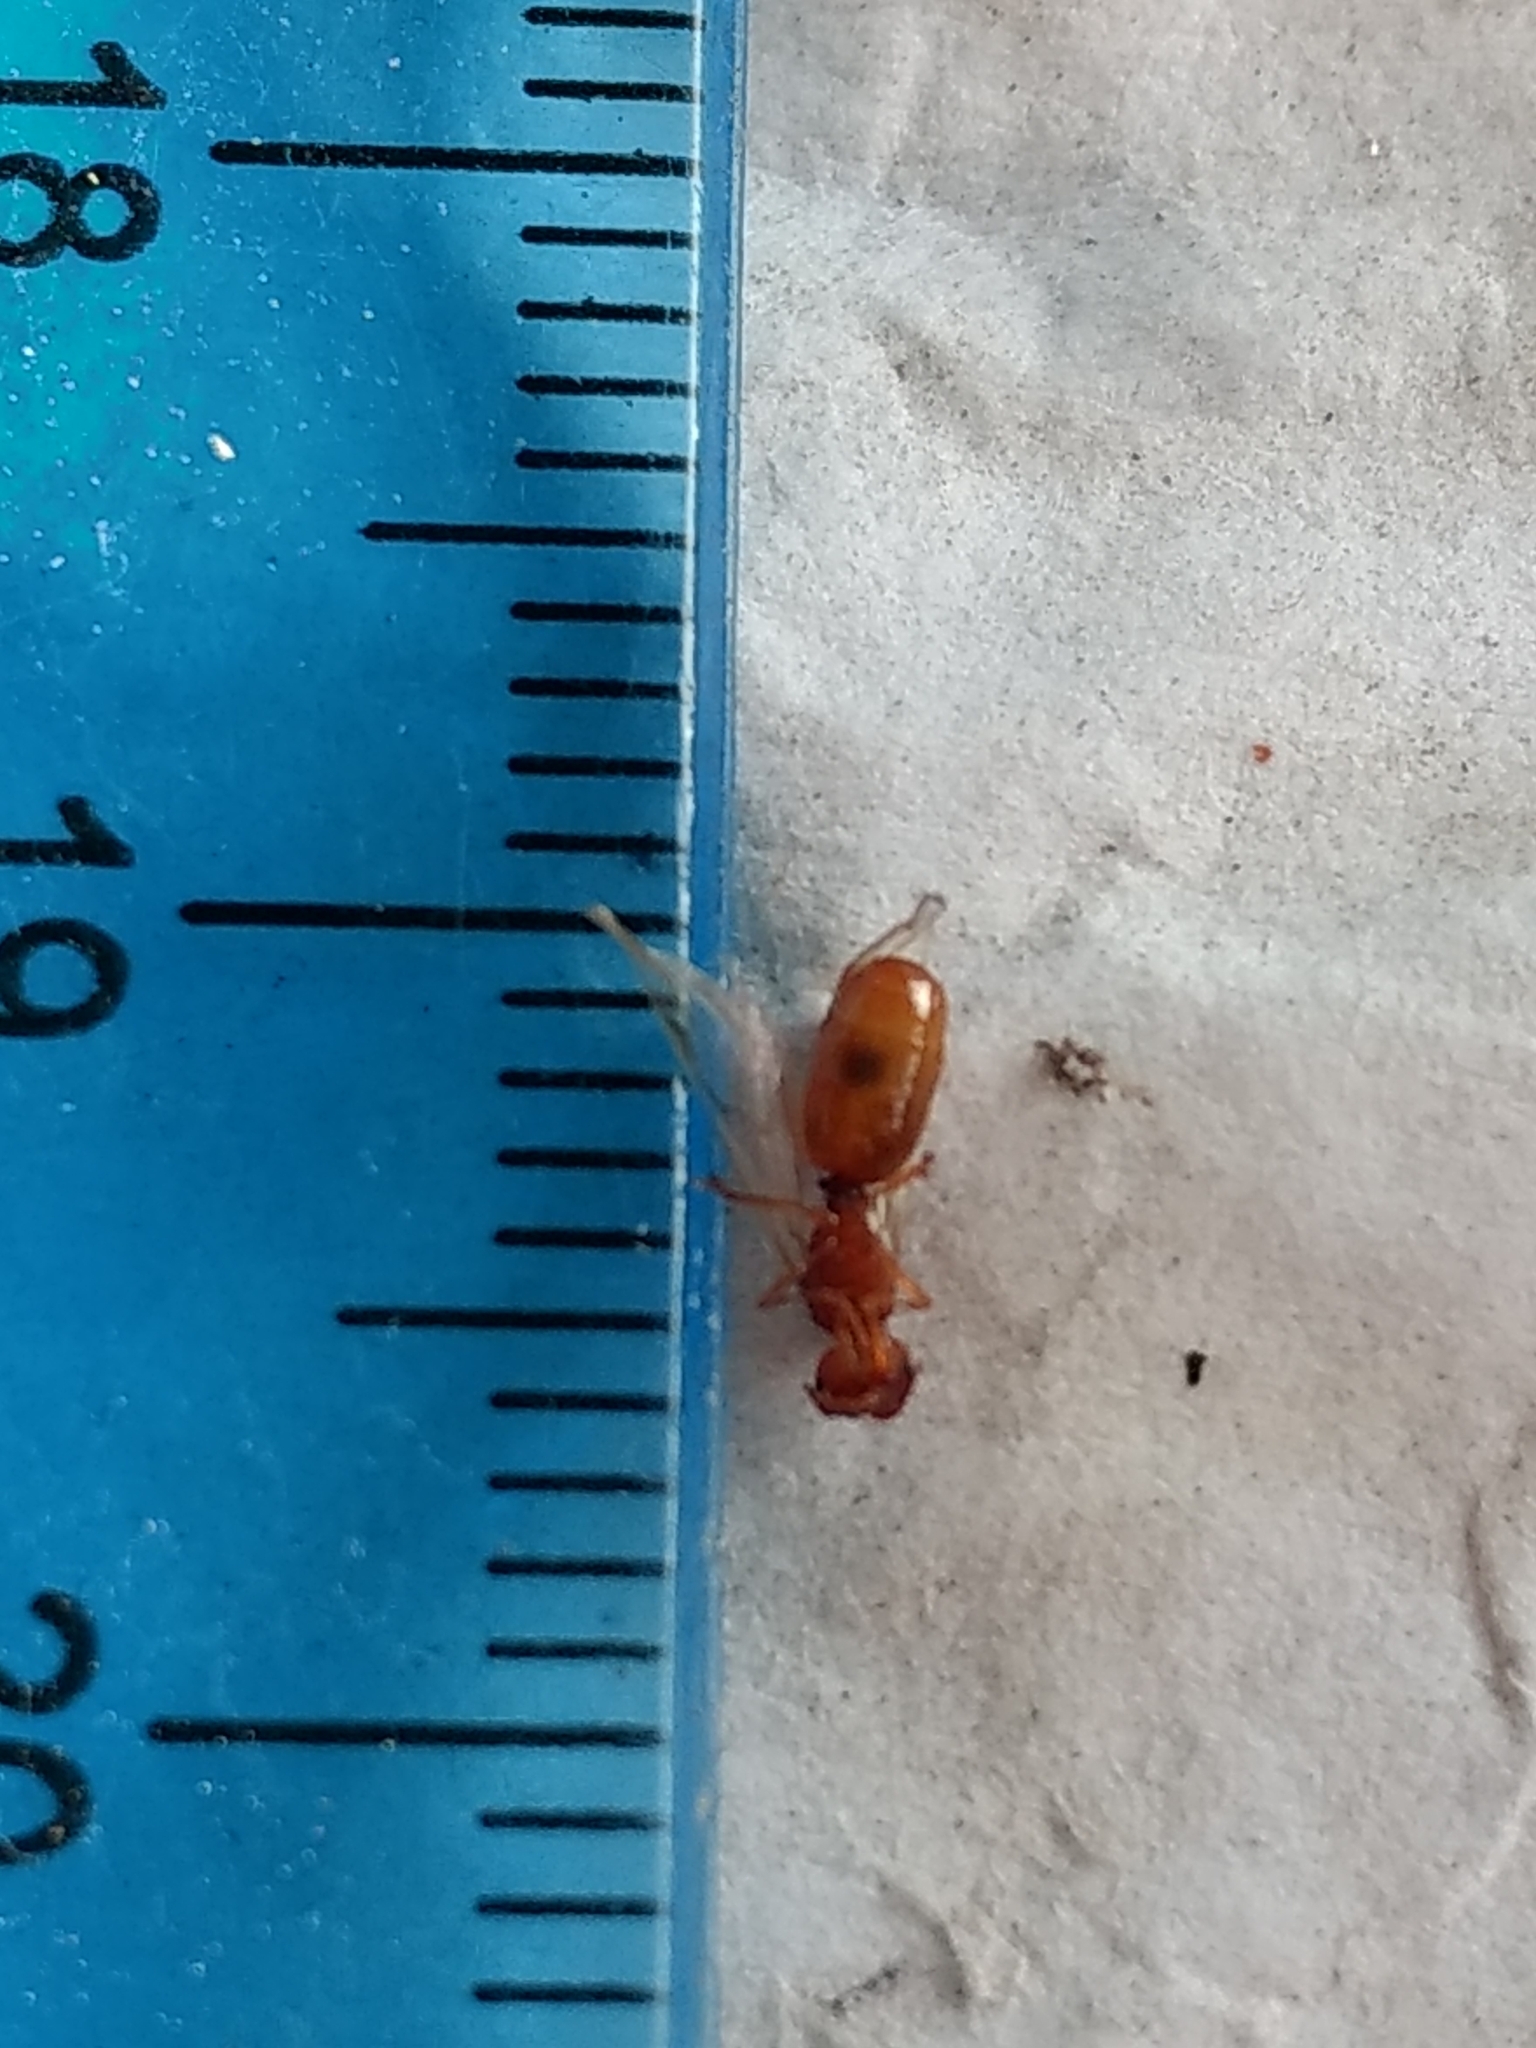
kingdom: Animalia
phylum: Arthropoda
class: Insecta
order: Hymenoptera
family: Formicidae
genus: Pheidole
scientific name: Pheidole cerebrosior
